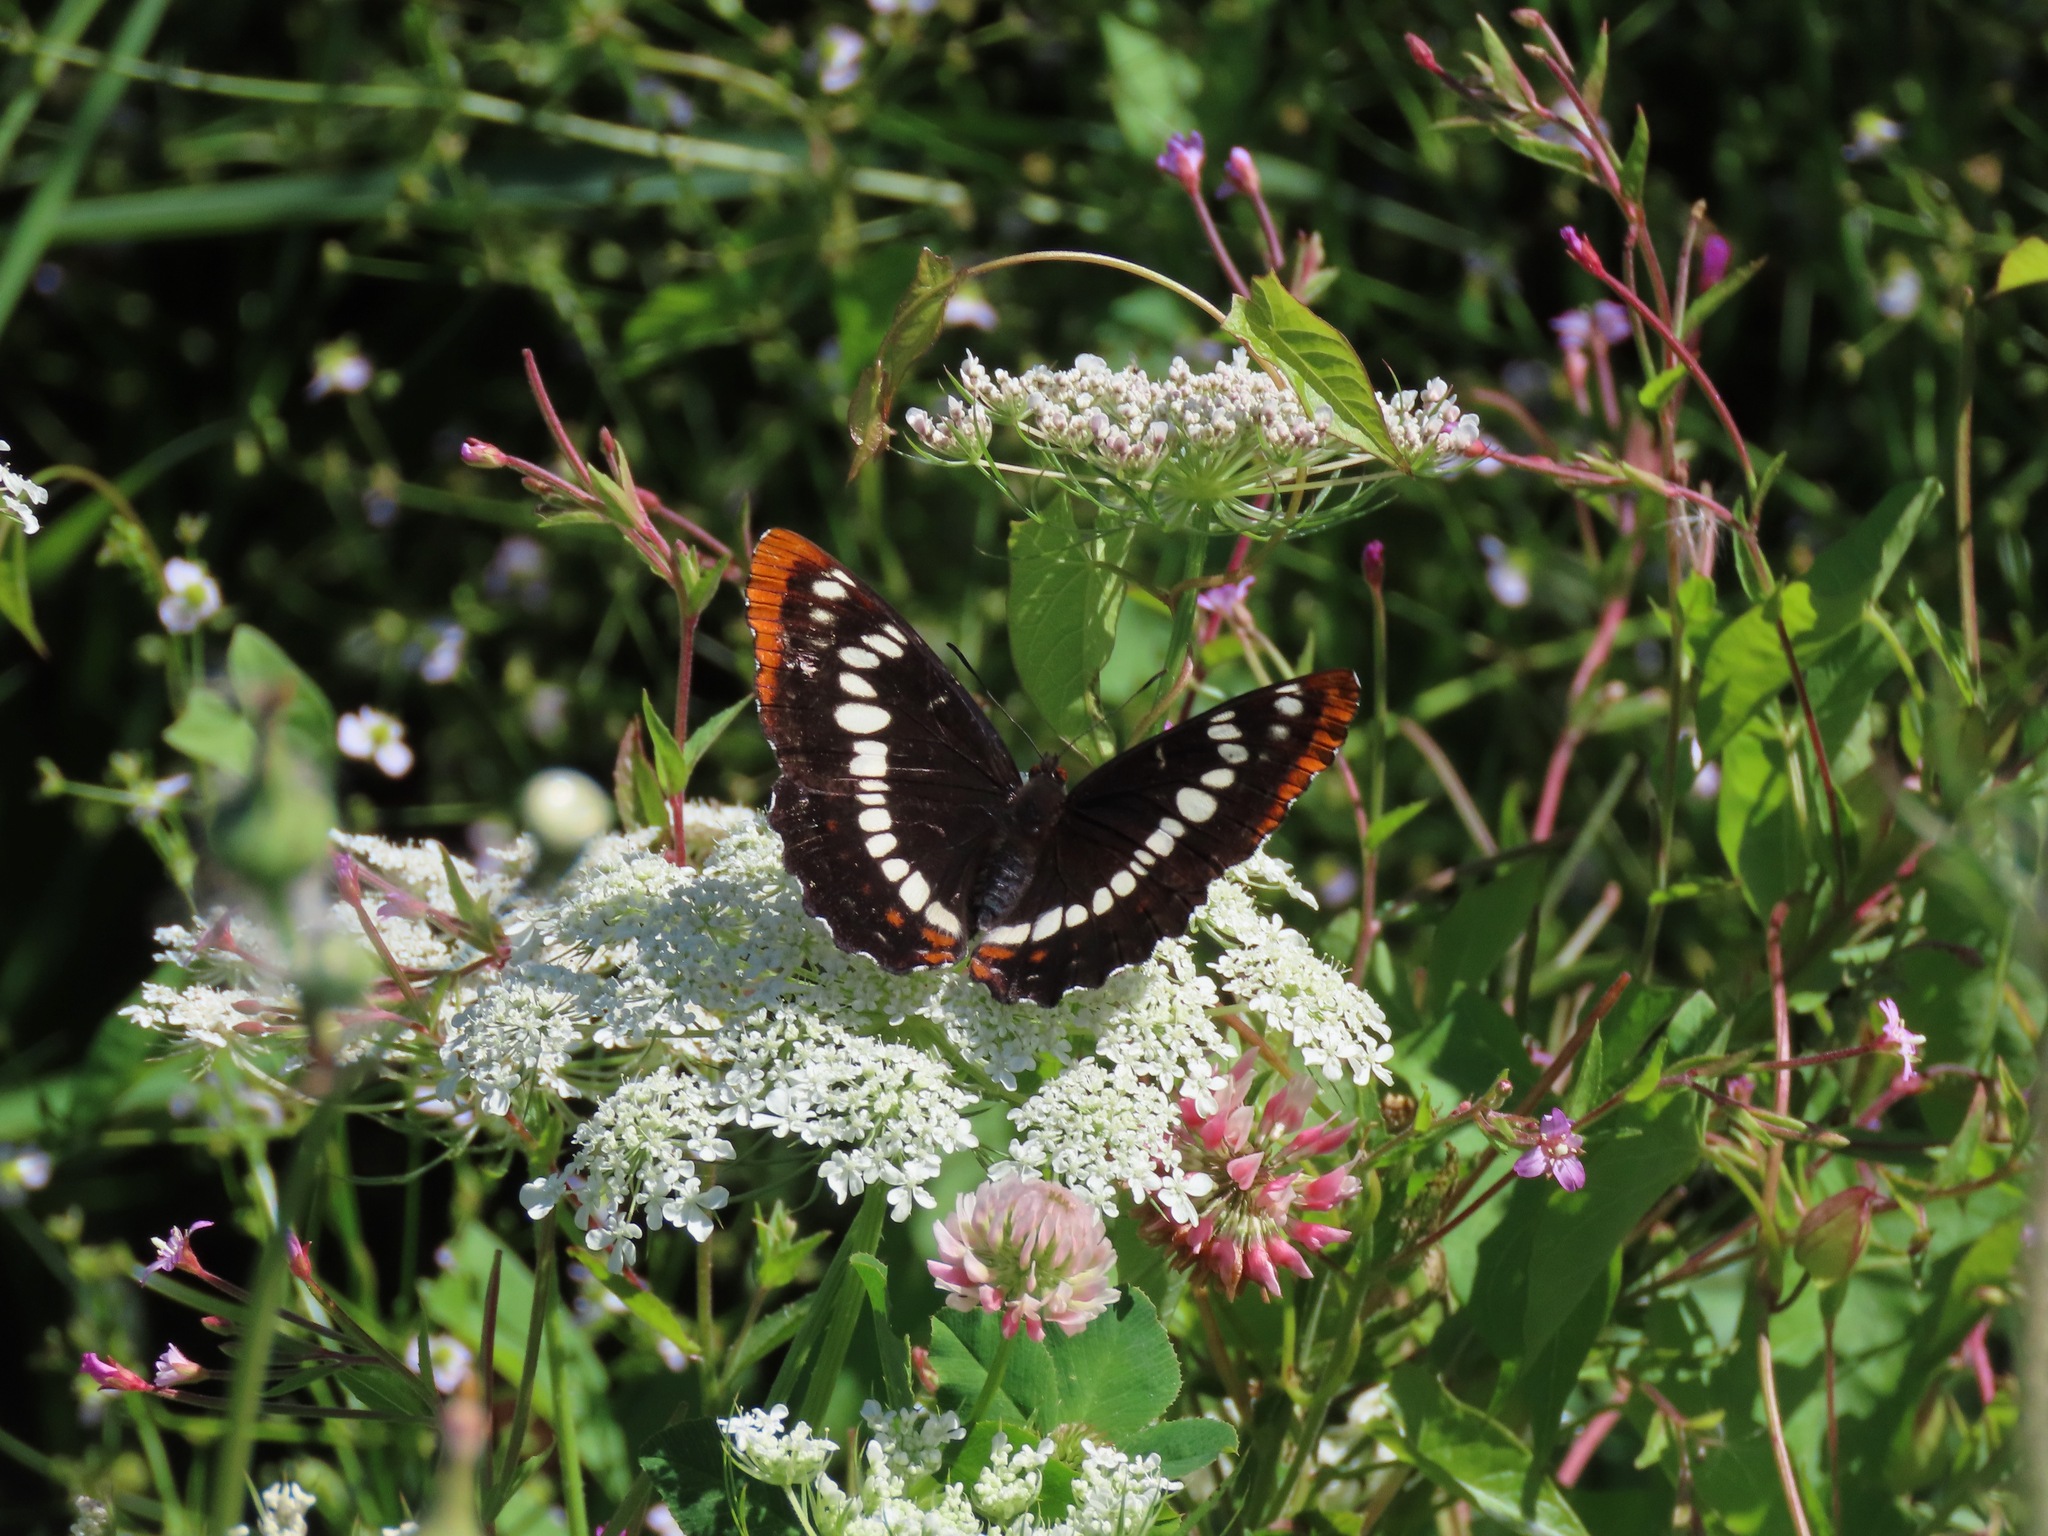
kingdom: Animalia
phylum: Arthropoda
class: Insecta
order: Lepidoptera
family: Nymphalidae
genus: Limenitis
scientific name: Limenitis lorquini
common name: Lorquin's admiral
